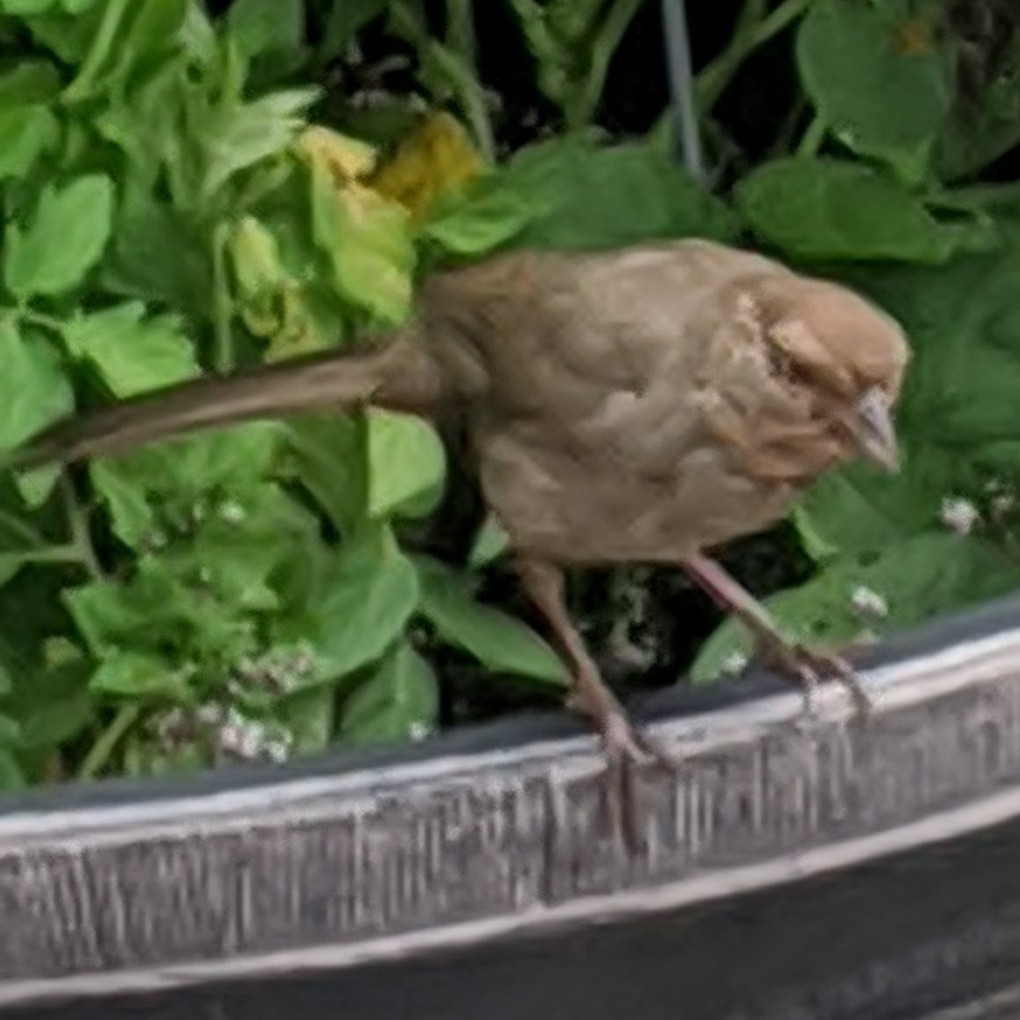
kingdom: Animalia
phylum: Chordata
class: Aves
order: Passeriformes
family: Passerellidae
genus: Melozone
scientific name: Melozone crissalis
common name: California towhee
